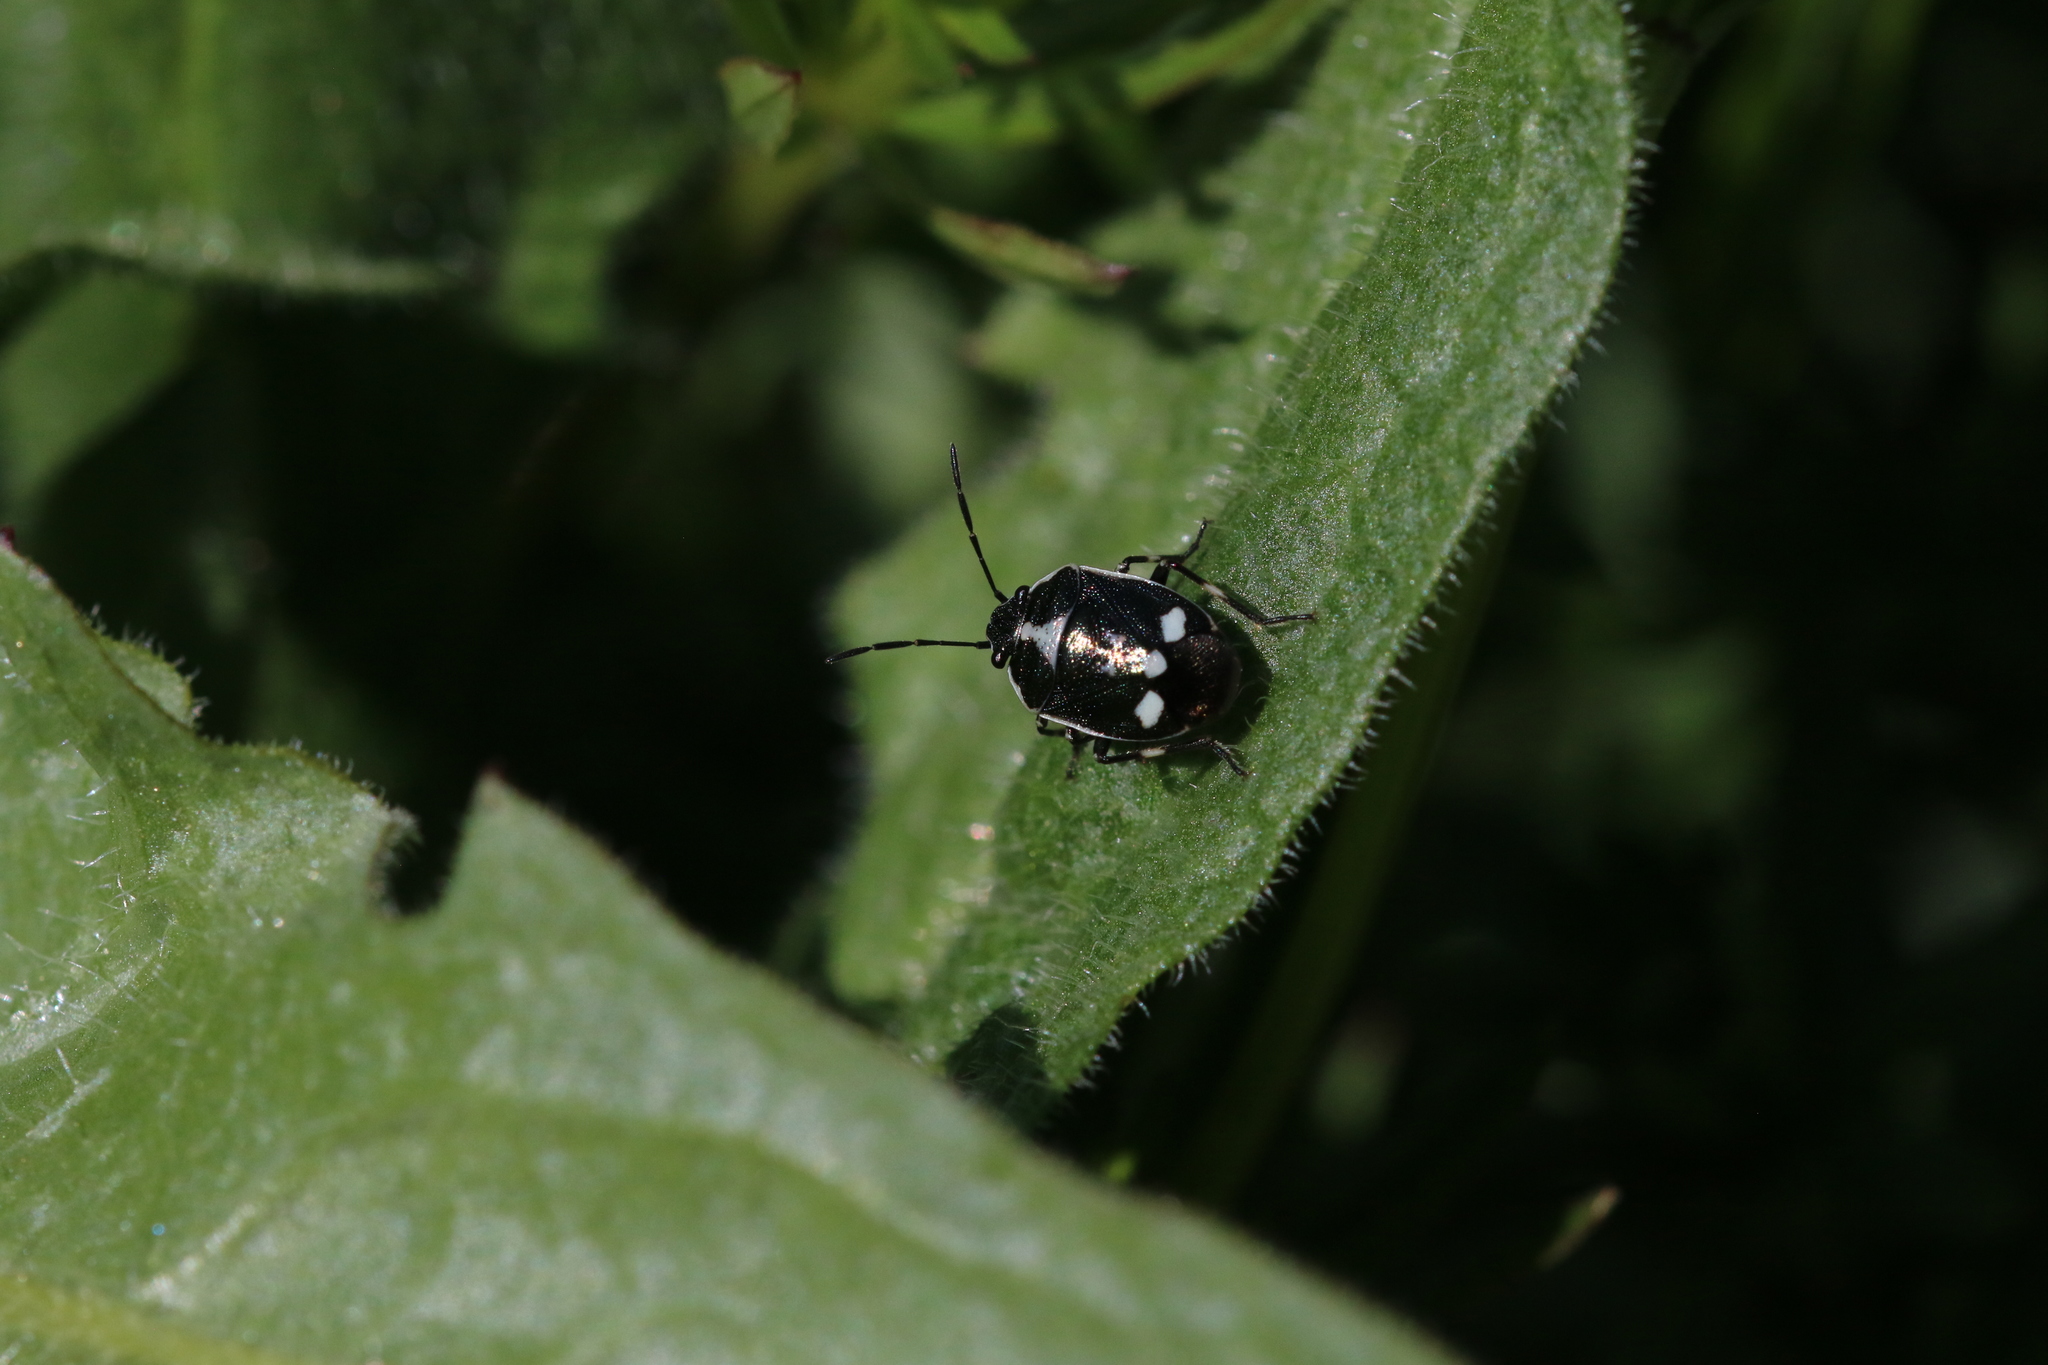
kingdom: Animalia
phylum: Arthropoda
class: Insecta
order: Hemiptera
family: Pentatomidae
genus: Eurydema
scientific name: Eurydema oleracea
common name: Cabbage bug
